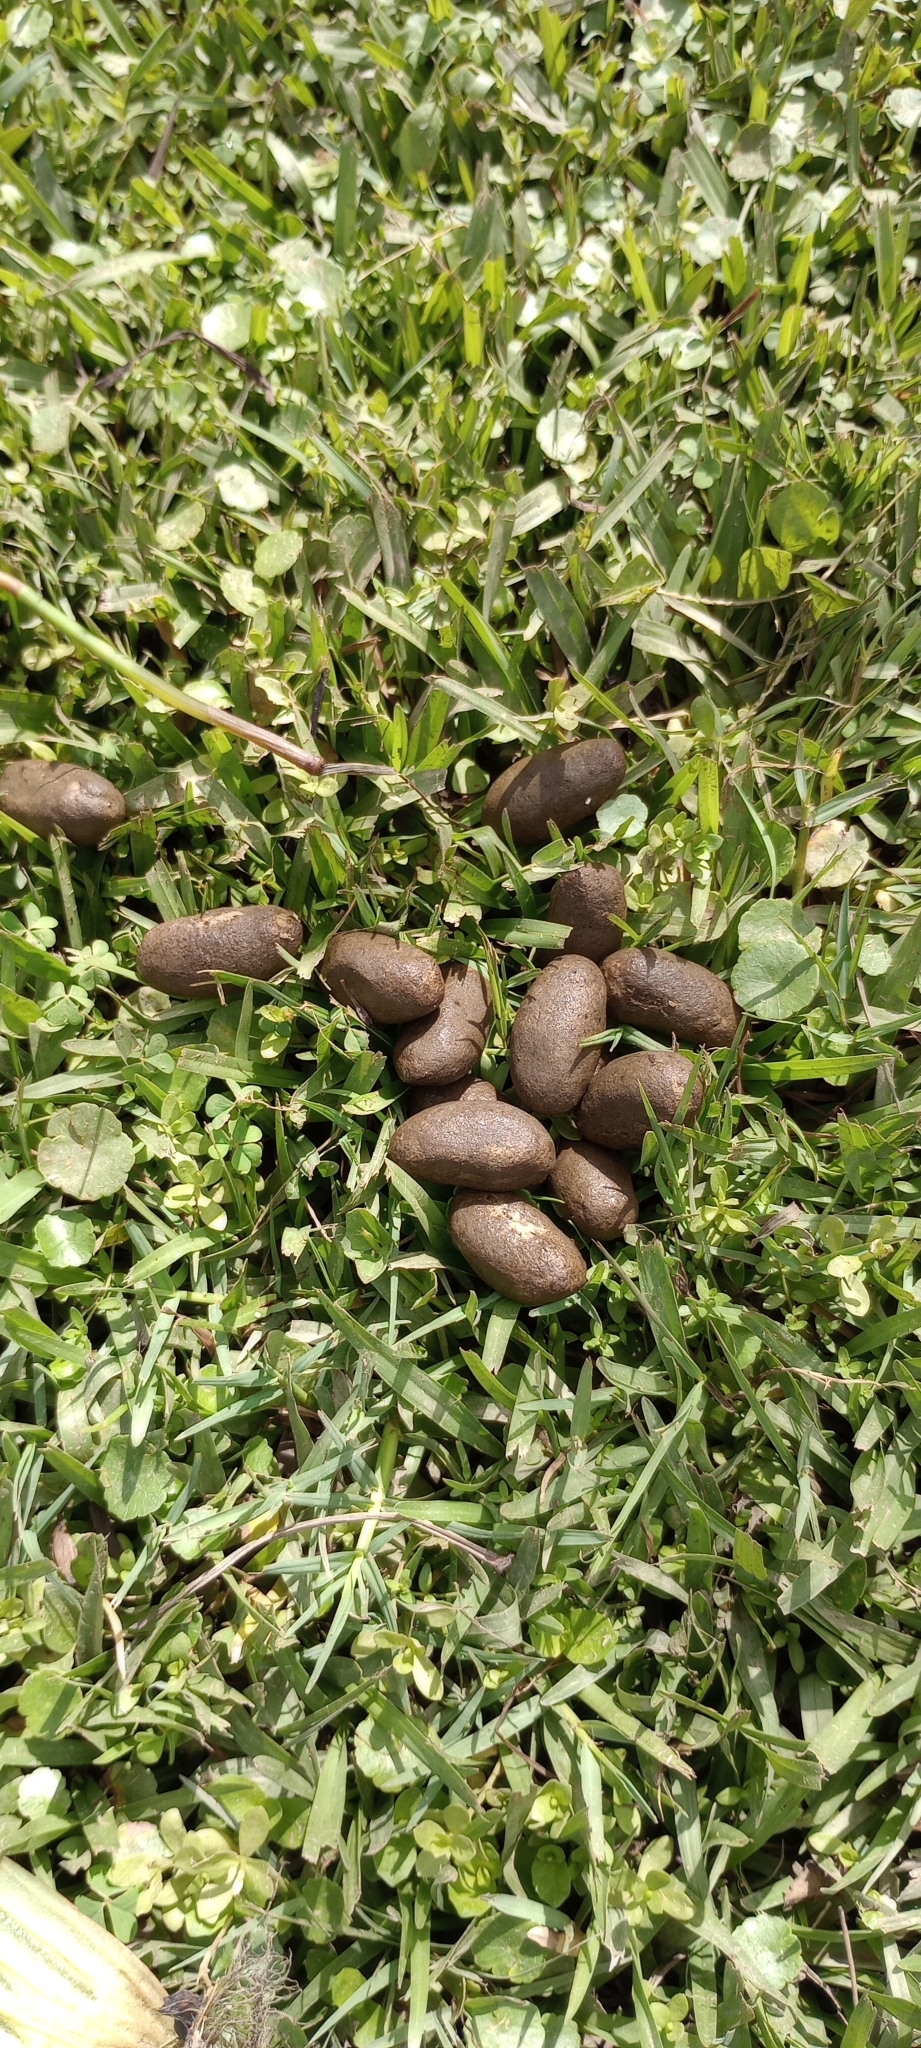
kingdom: Animalia
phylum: Chordata
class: Mammalia
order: Rodentia
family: Caviidae
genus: Hydrochoerus
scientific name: Hydrochoerus hydrochaeris
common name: Capybara
